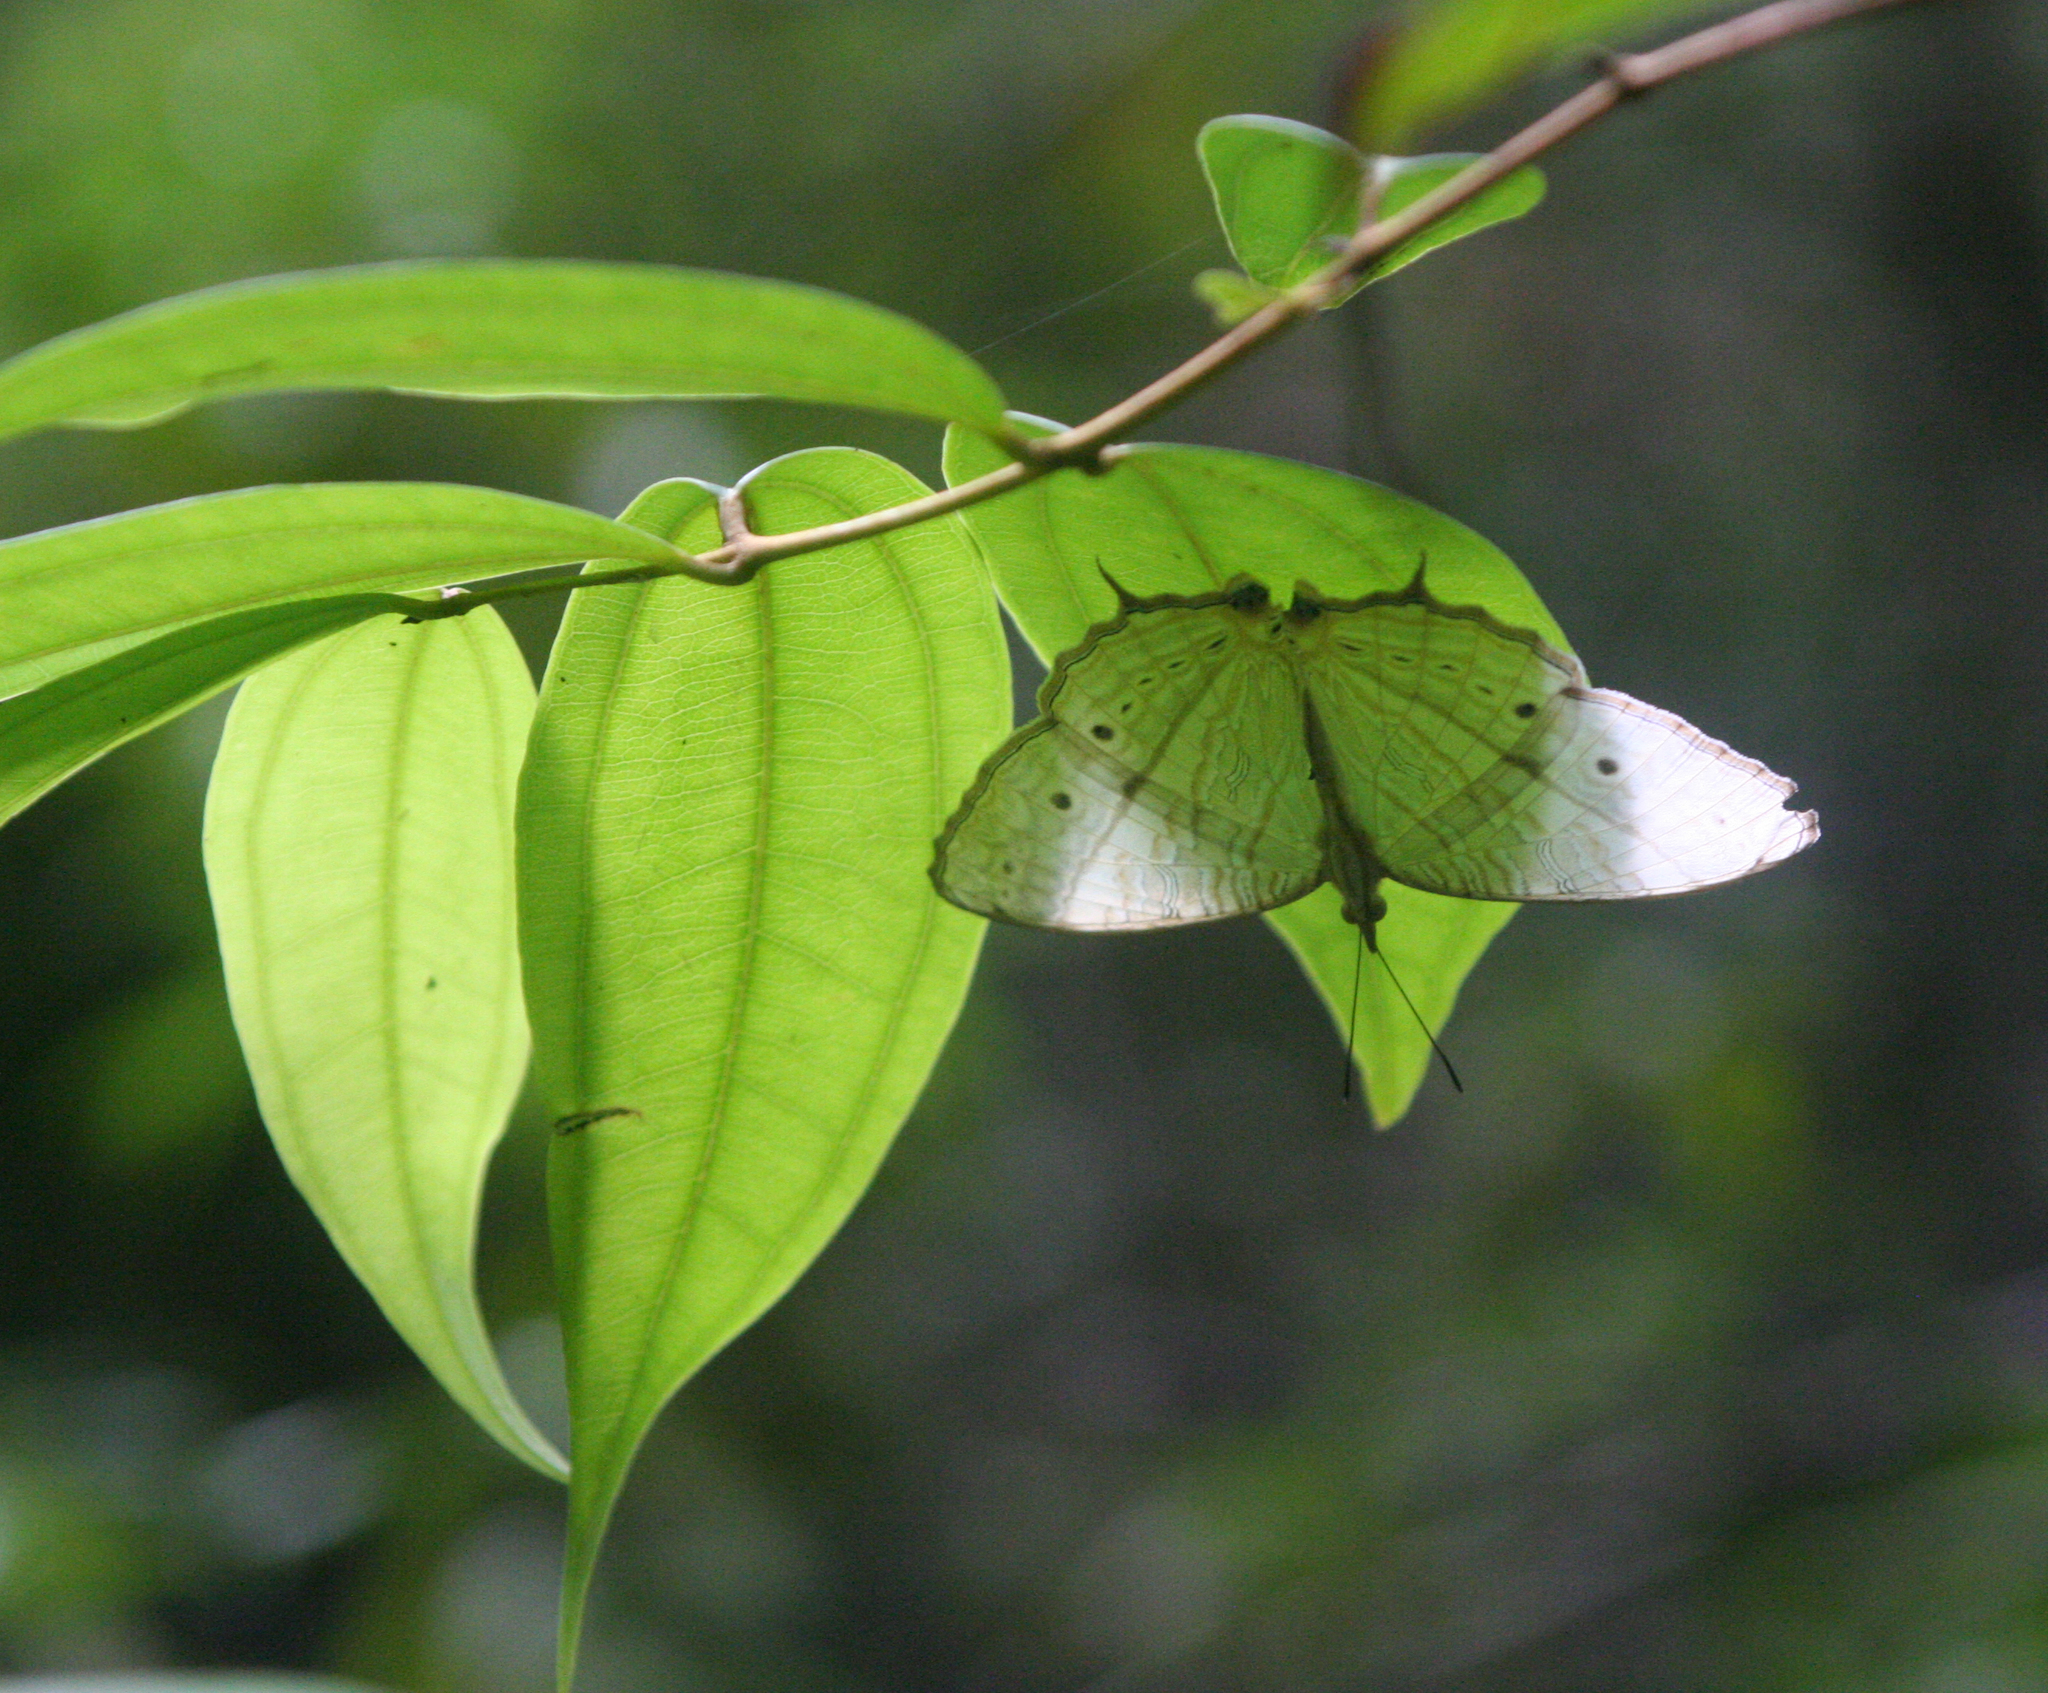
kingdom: Animalia
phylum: Arthropoda
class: Insecta
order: Lepidoptera
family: Nymphalidae
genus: Cyrestis
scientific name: Cyrestis cocles
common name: Marbled map
